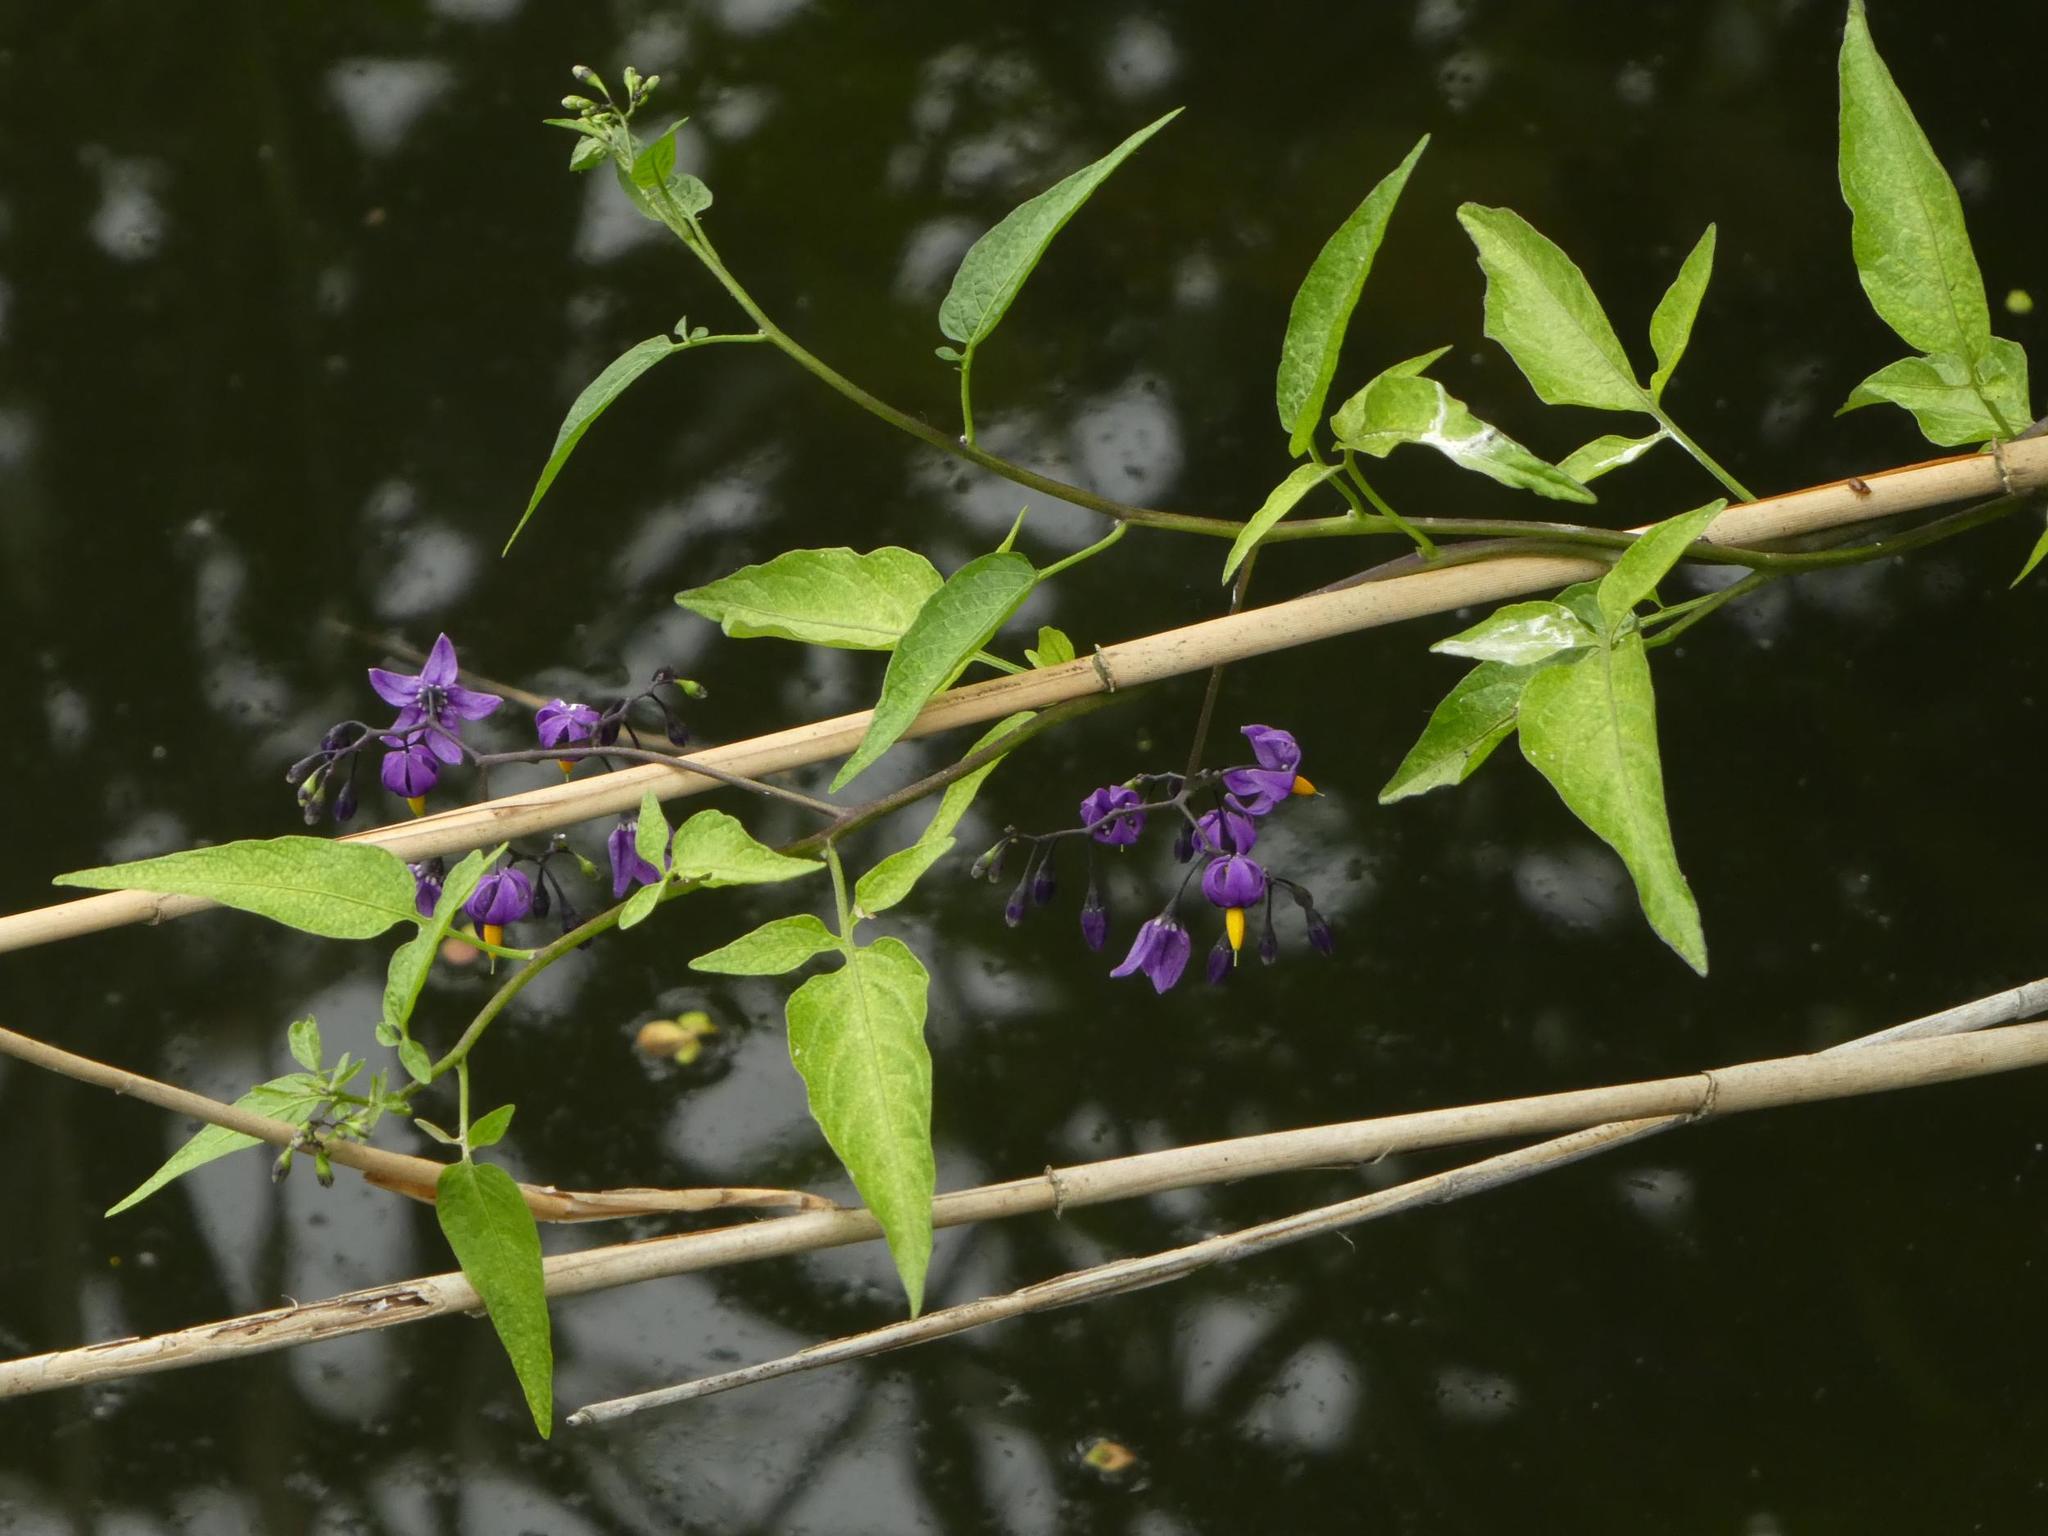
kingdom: Plantae
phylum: Tracheophyta
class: Magnoliopsida
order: Solanales
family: Solanaceae
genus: Solanum
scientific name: Solanum dulcamara
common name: Climbing nightshade
